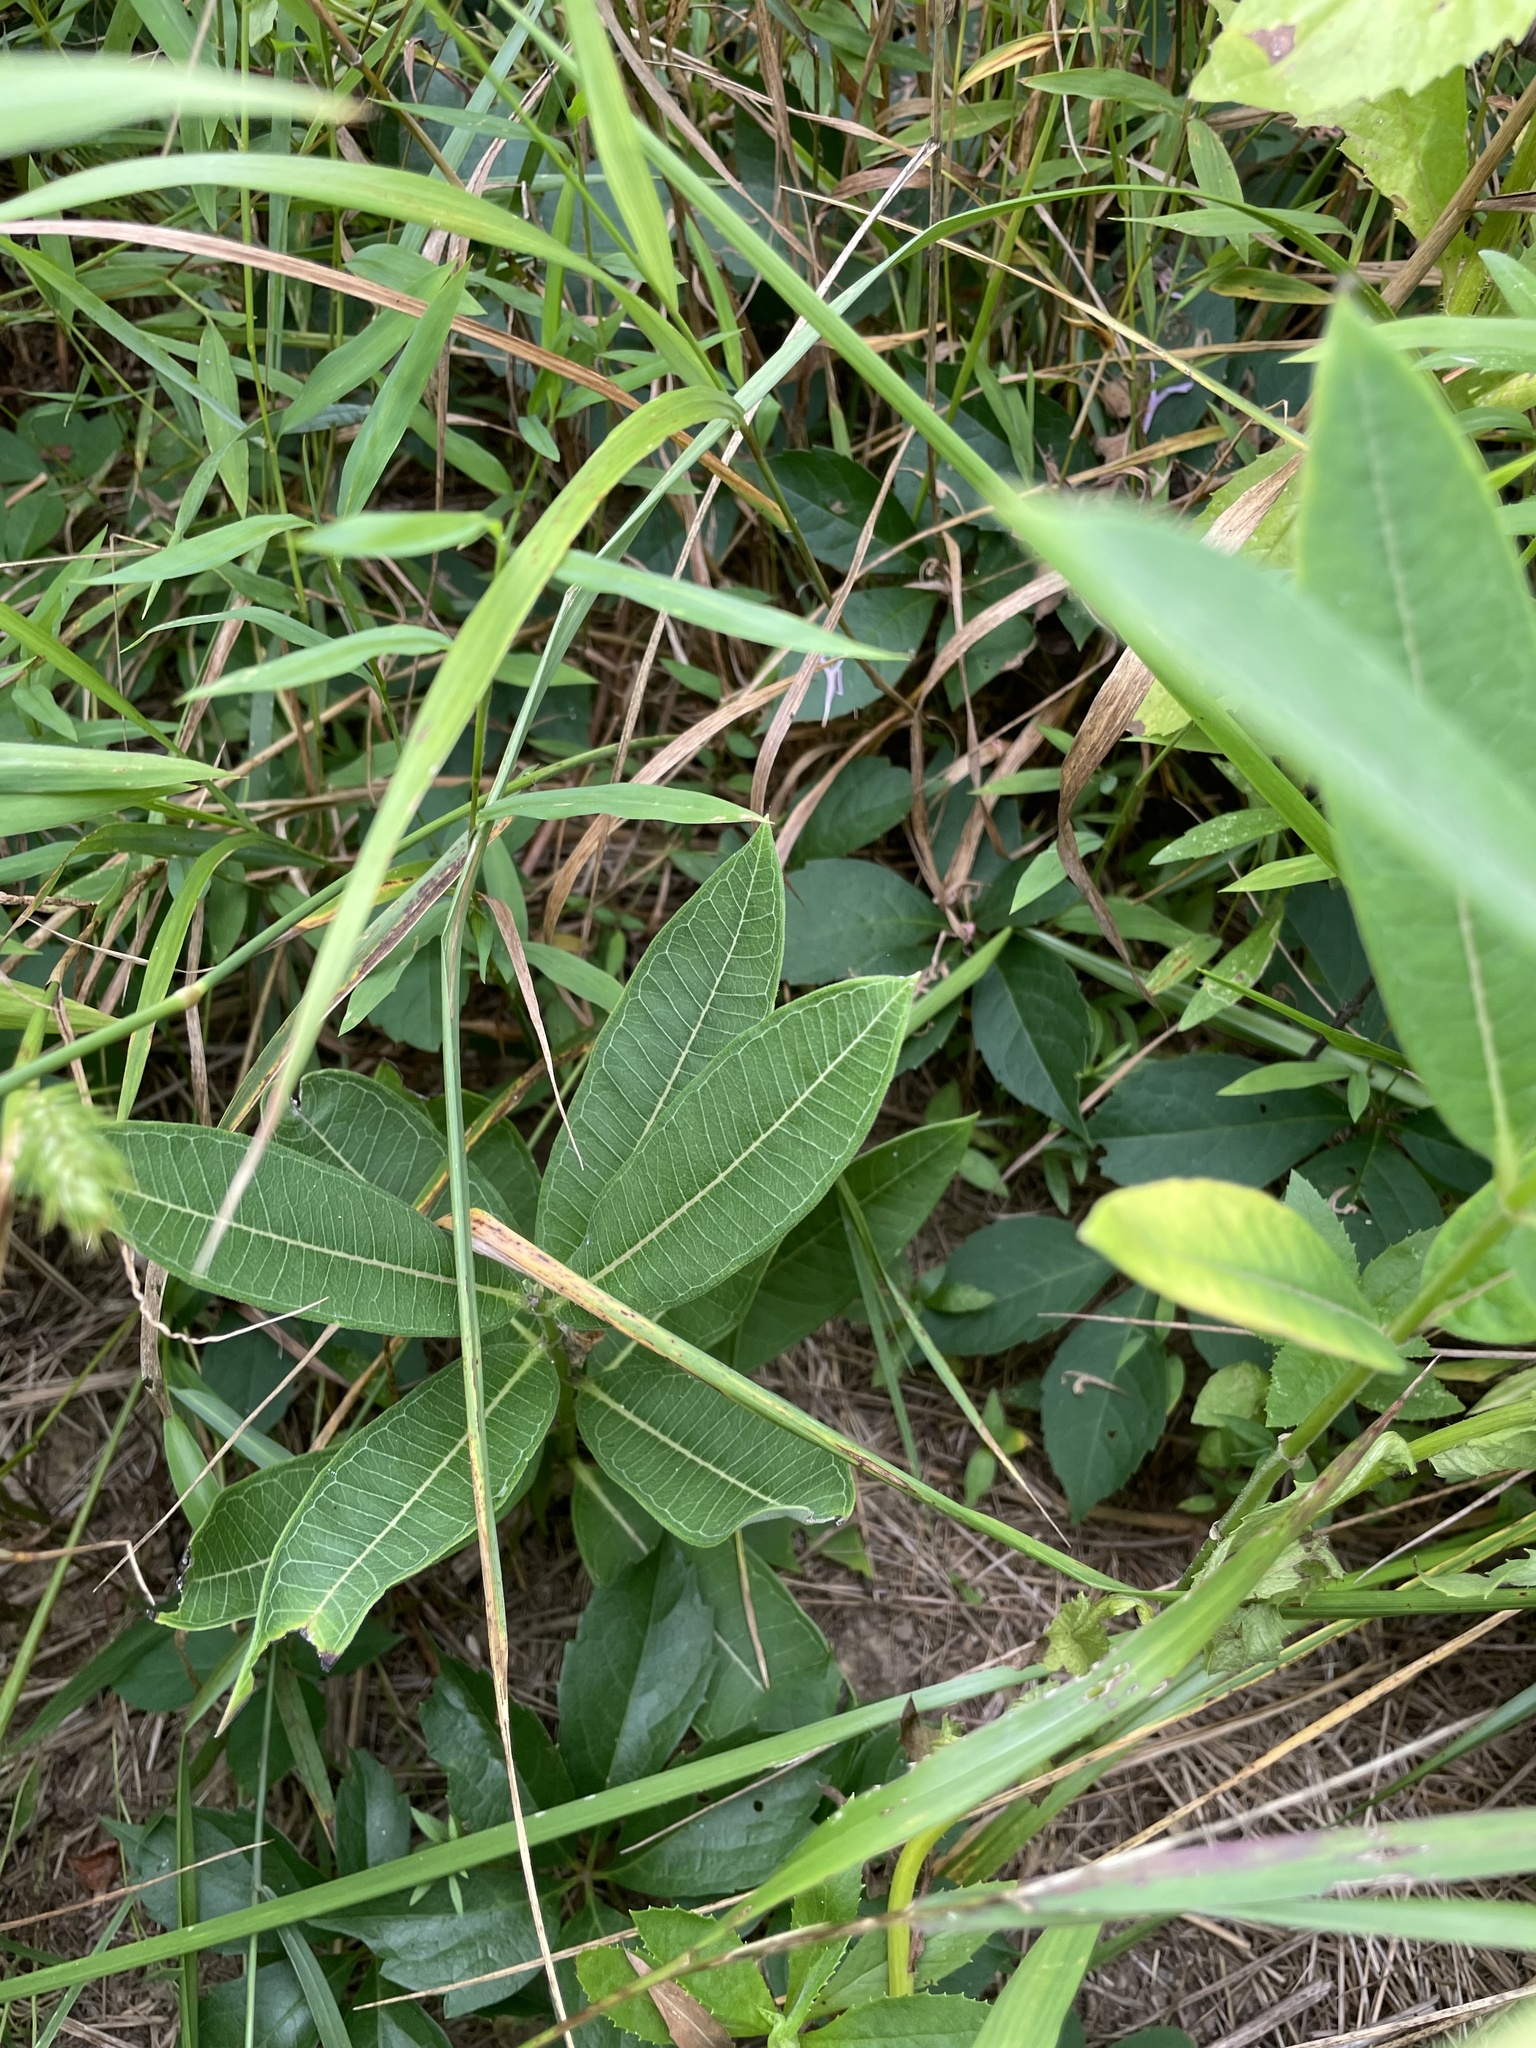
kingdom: Plantae
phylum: Tracheophyta
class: Magnoliopsida
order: Gentianales
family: Apocynaceae
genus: Asclepias
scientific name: Asclepias syriaca
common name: Common milkweed
